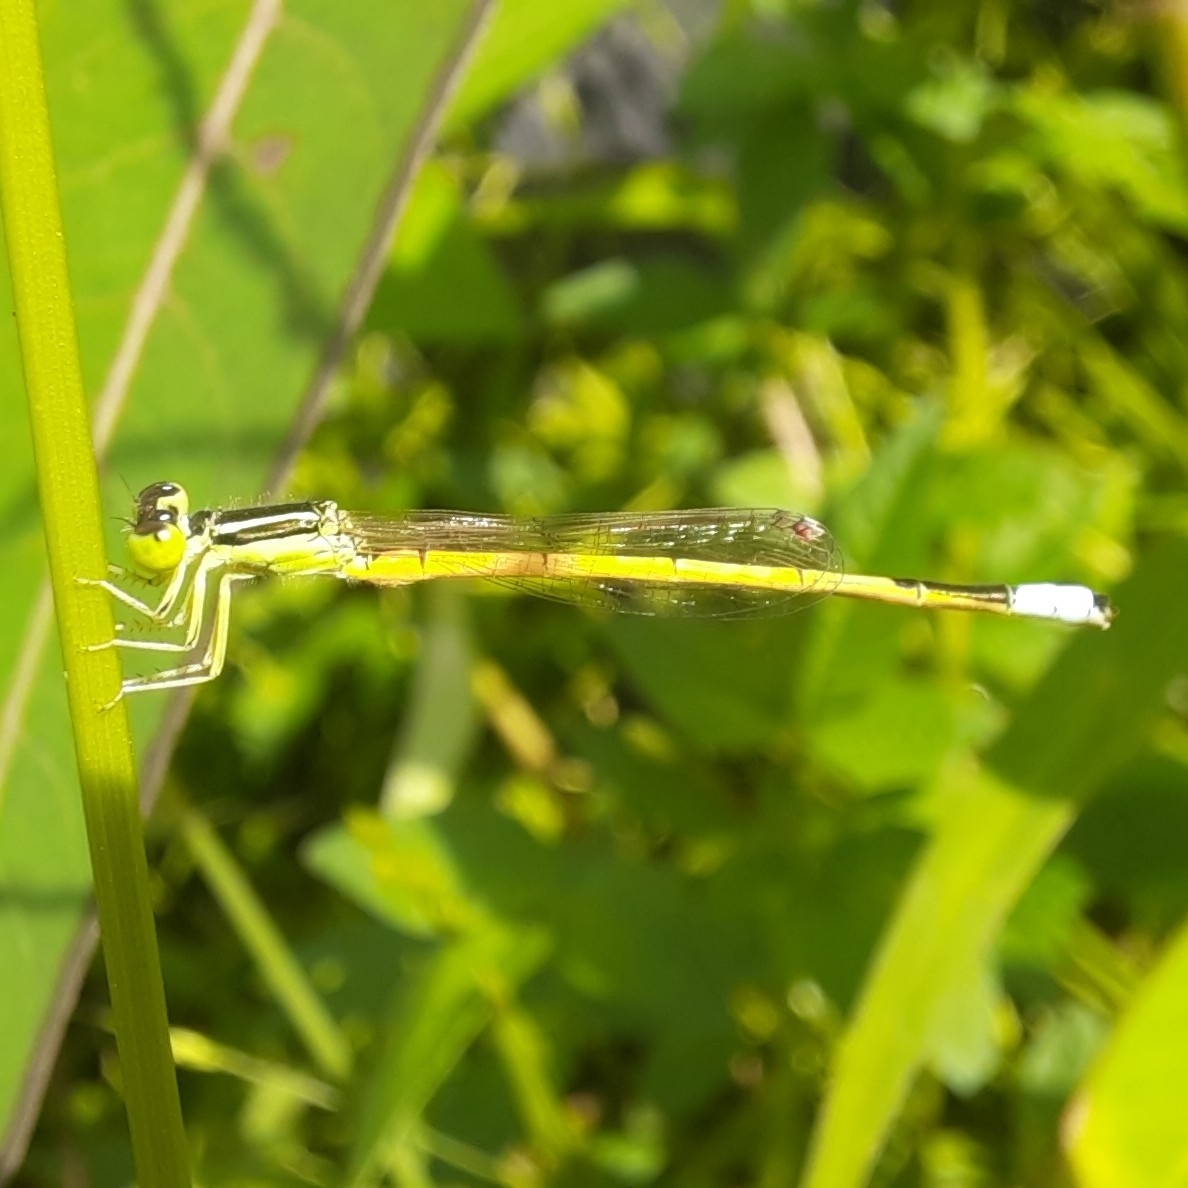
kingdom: Animalia
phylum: Arthropoda
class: Insecta
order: Odonata
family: Coenagrionidae
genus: Ischnura
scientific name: Ischnura rubilio
